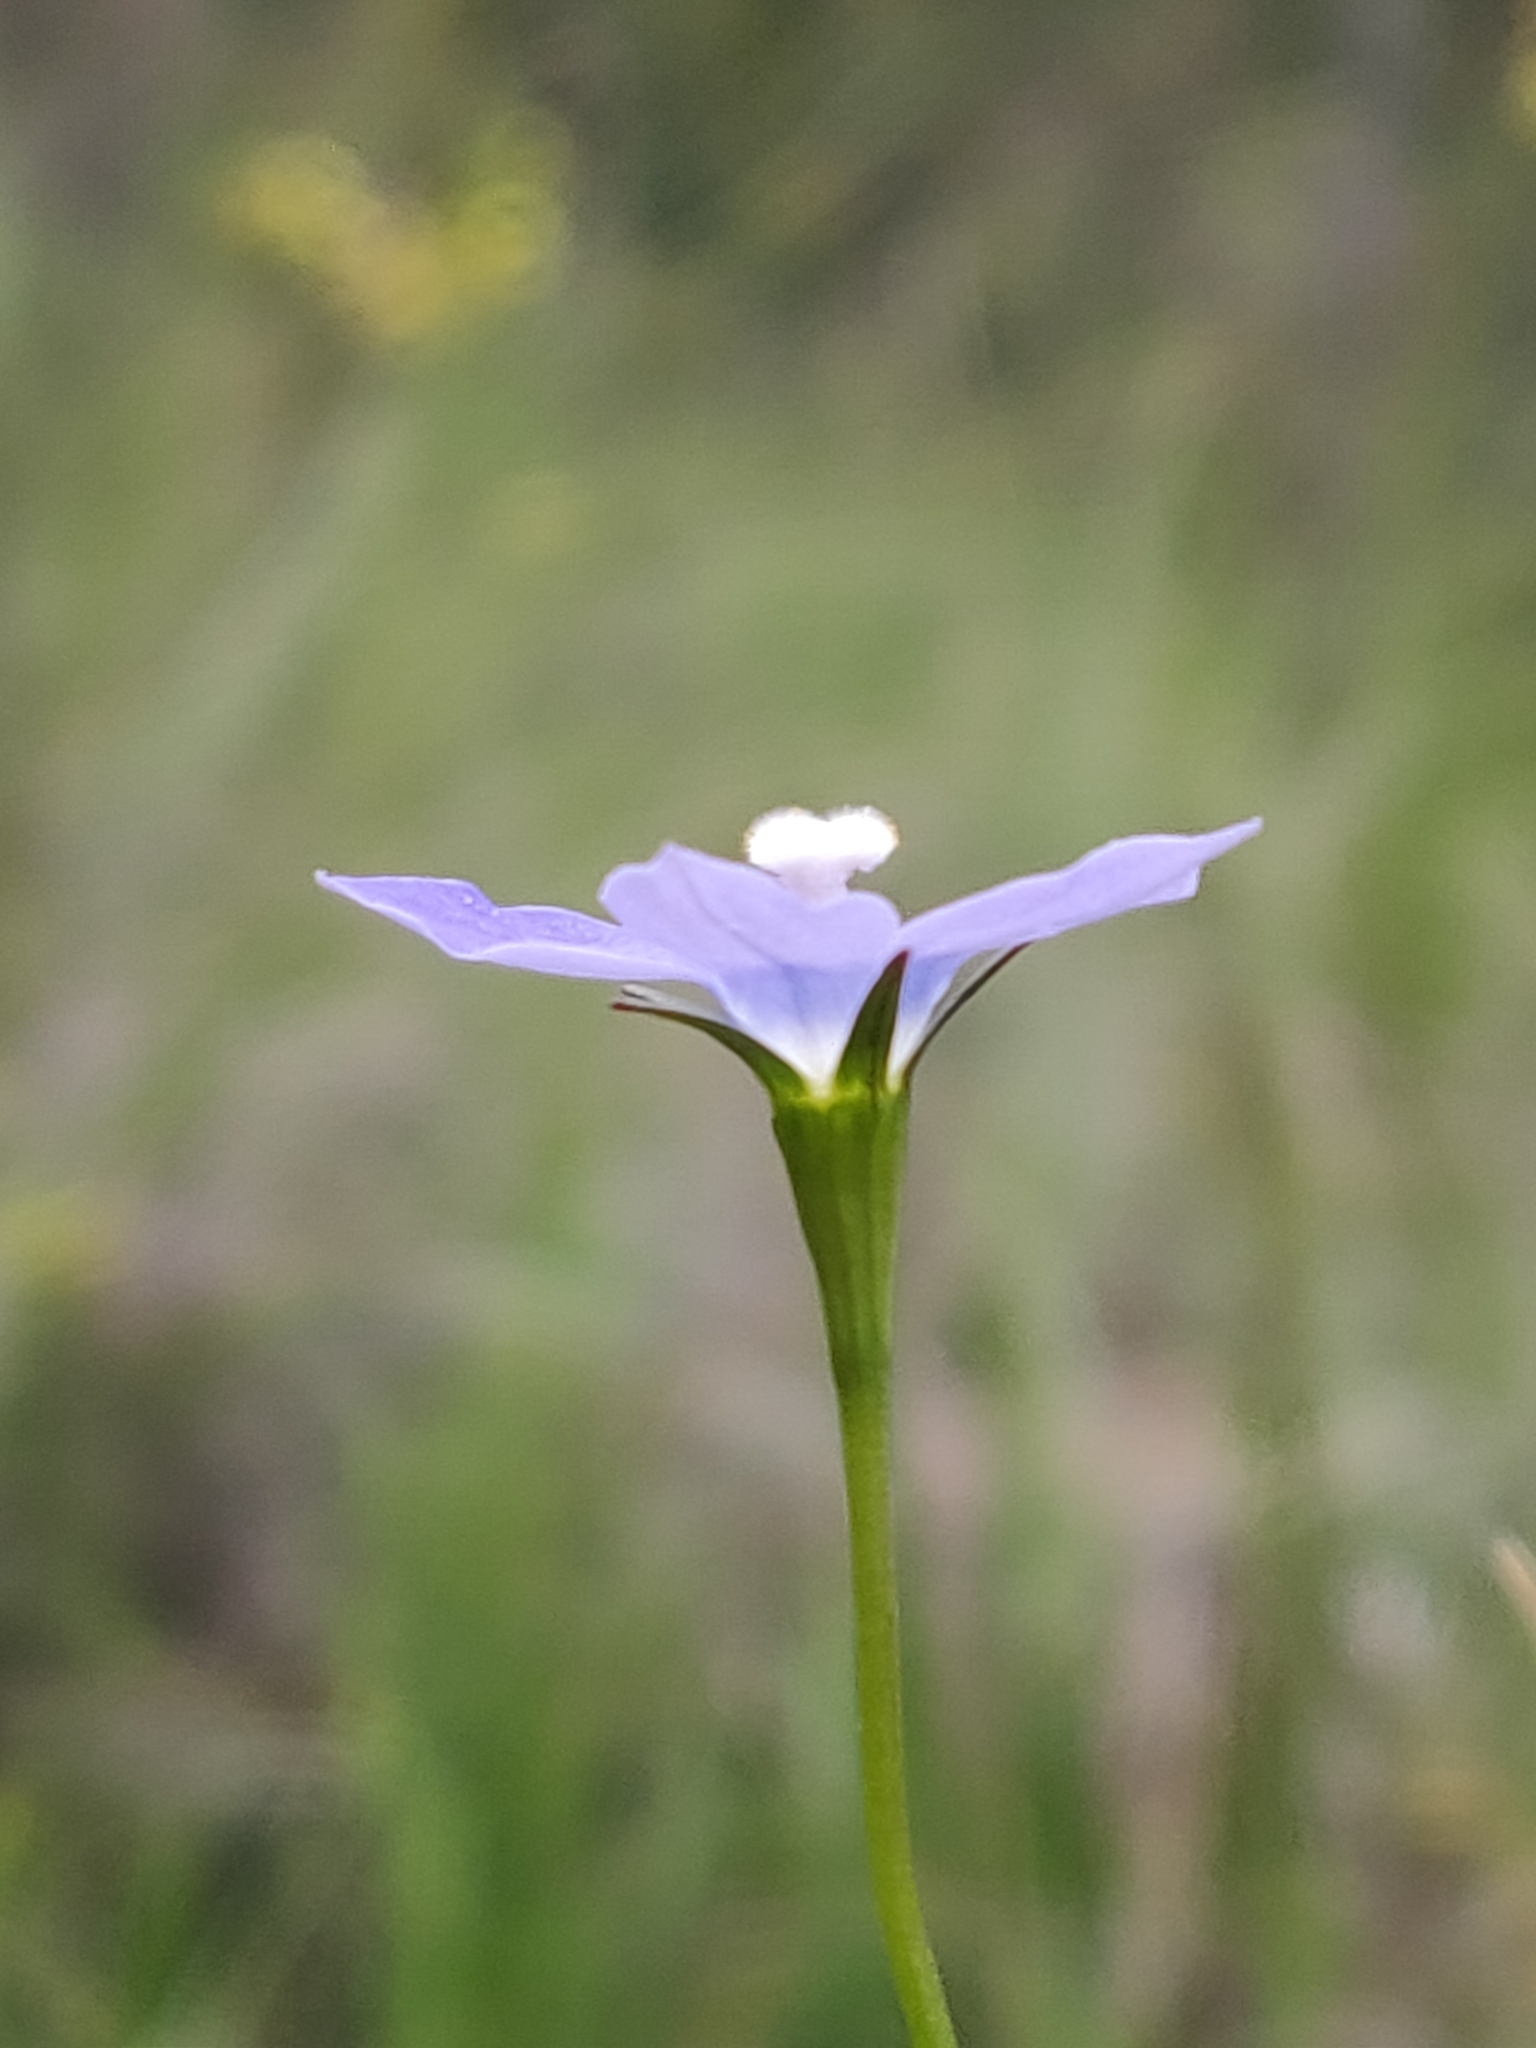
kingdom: Plantae
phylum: Tracheophyta
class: Magnoliopsida
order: Asterales
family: Campanulaceae
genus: Wahlenbergia
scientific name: Wahlenbergia
